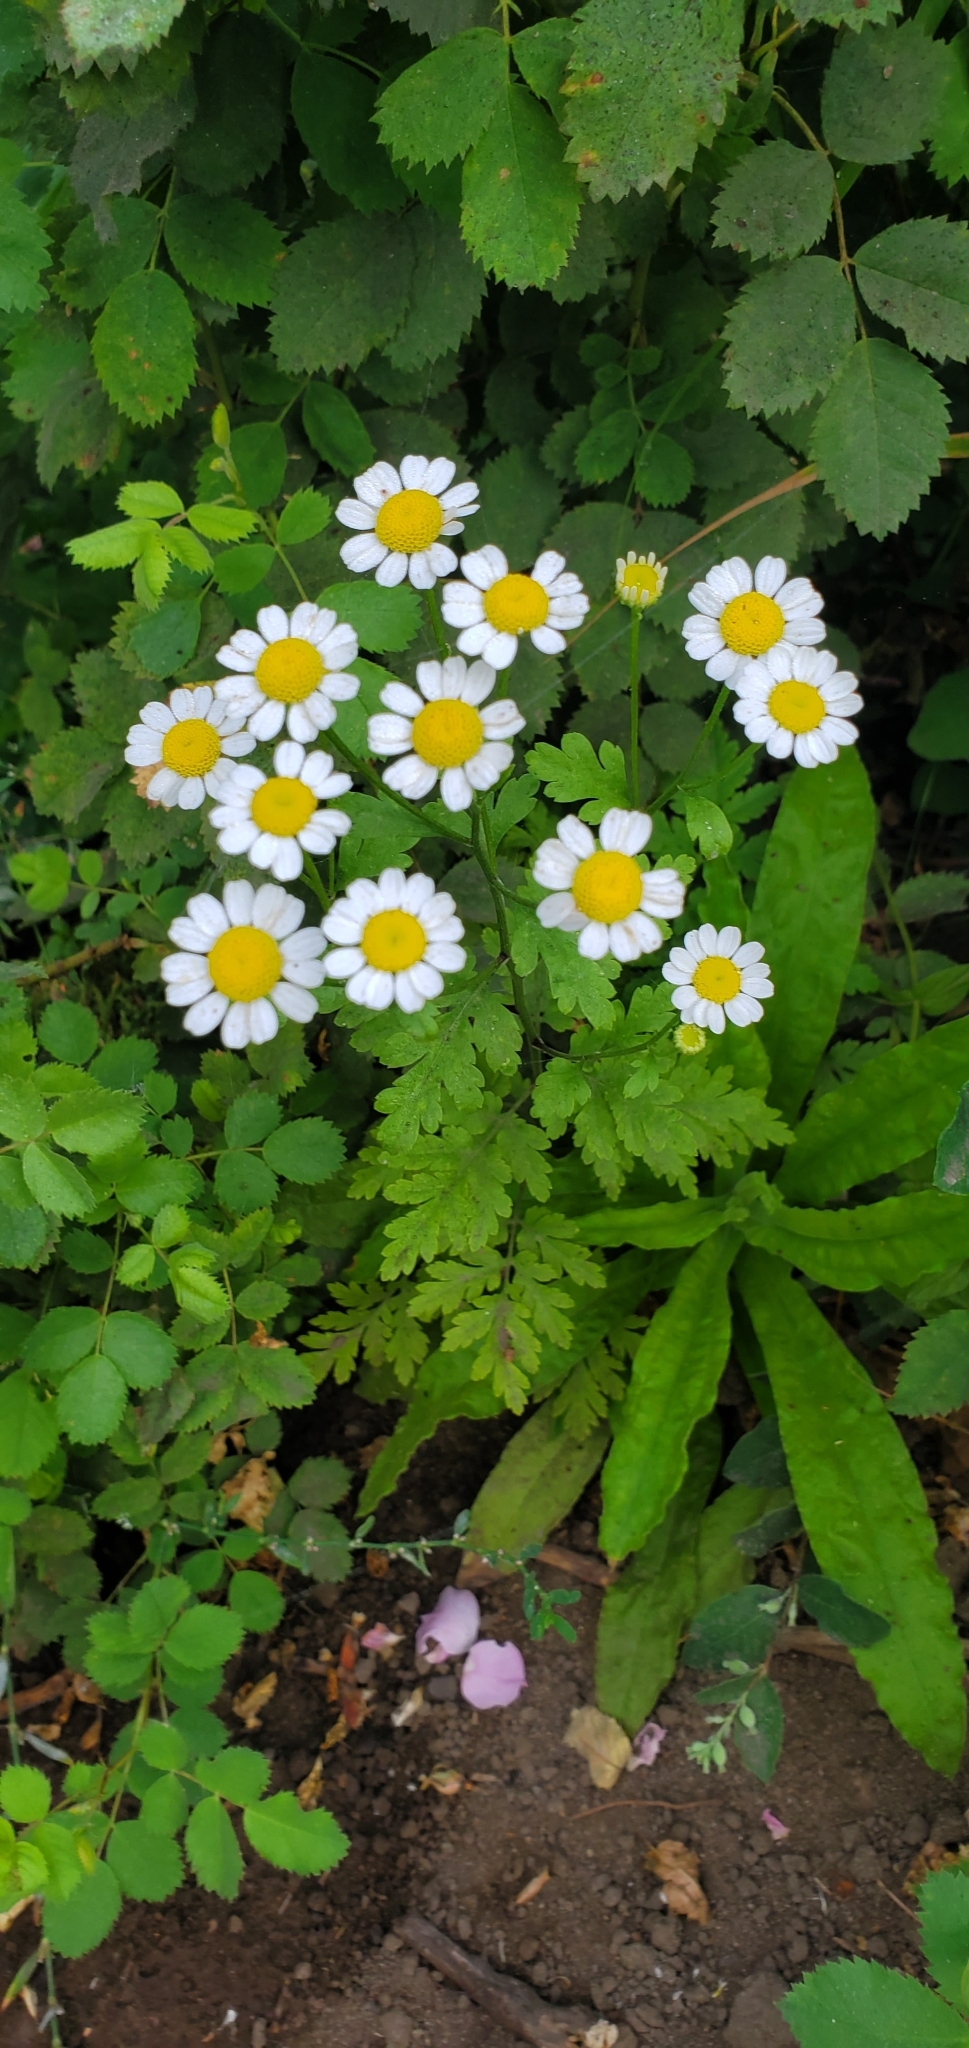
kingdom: Plantae
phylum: Tracheophyta
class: Magnoliopsida
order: Asterales
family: Asteraceae
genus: Tanacetum
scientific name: Tanacetum parthenium
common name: Feverfew
